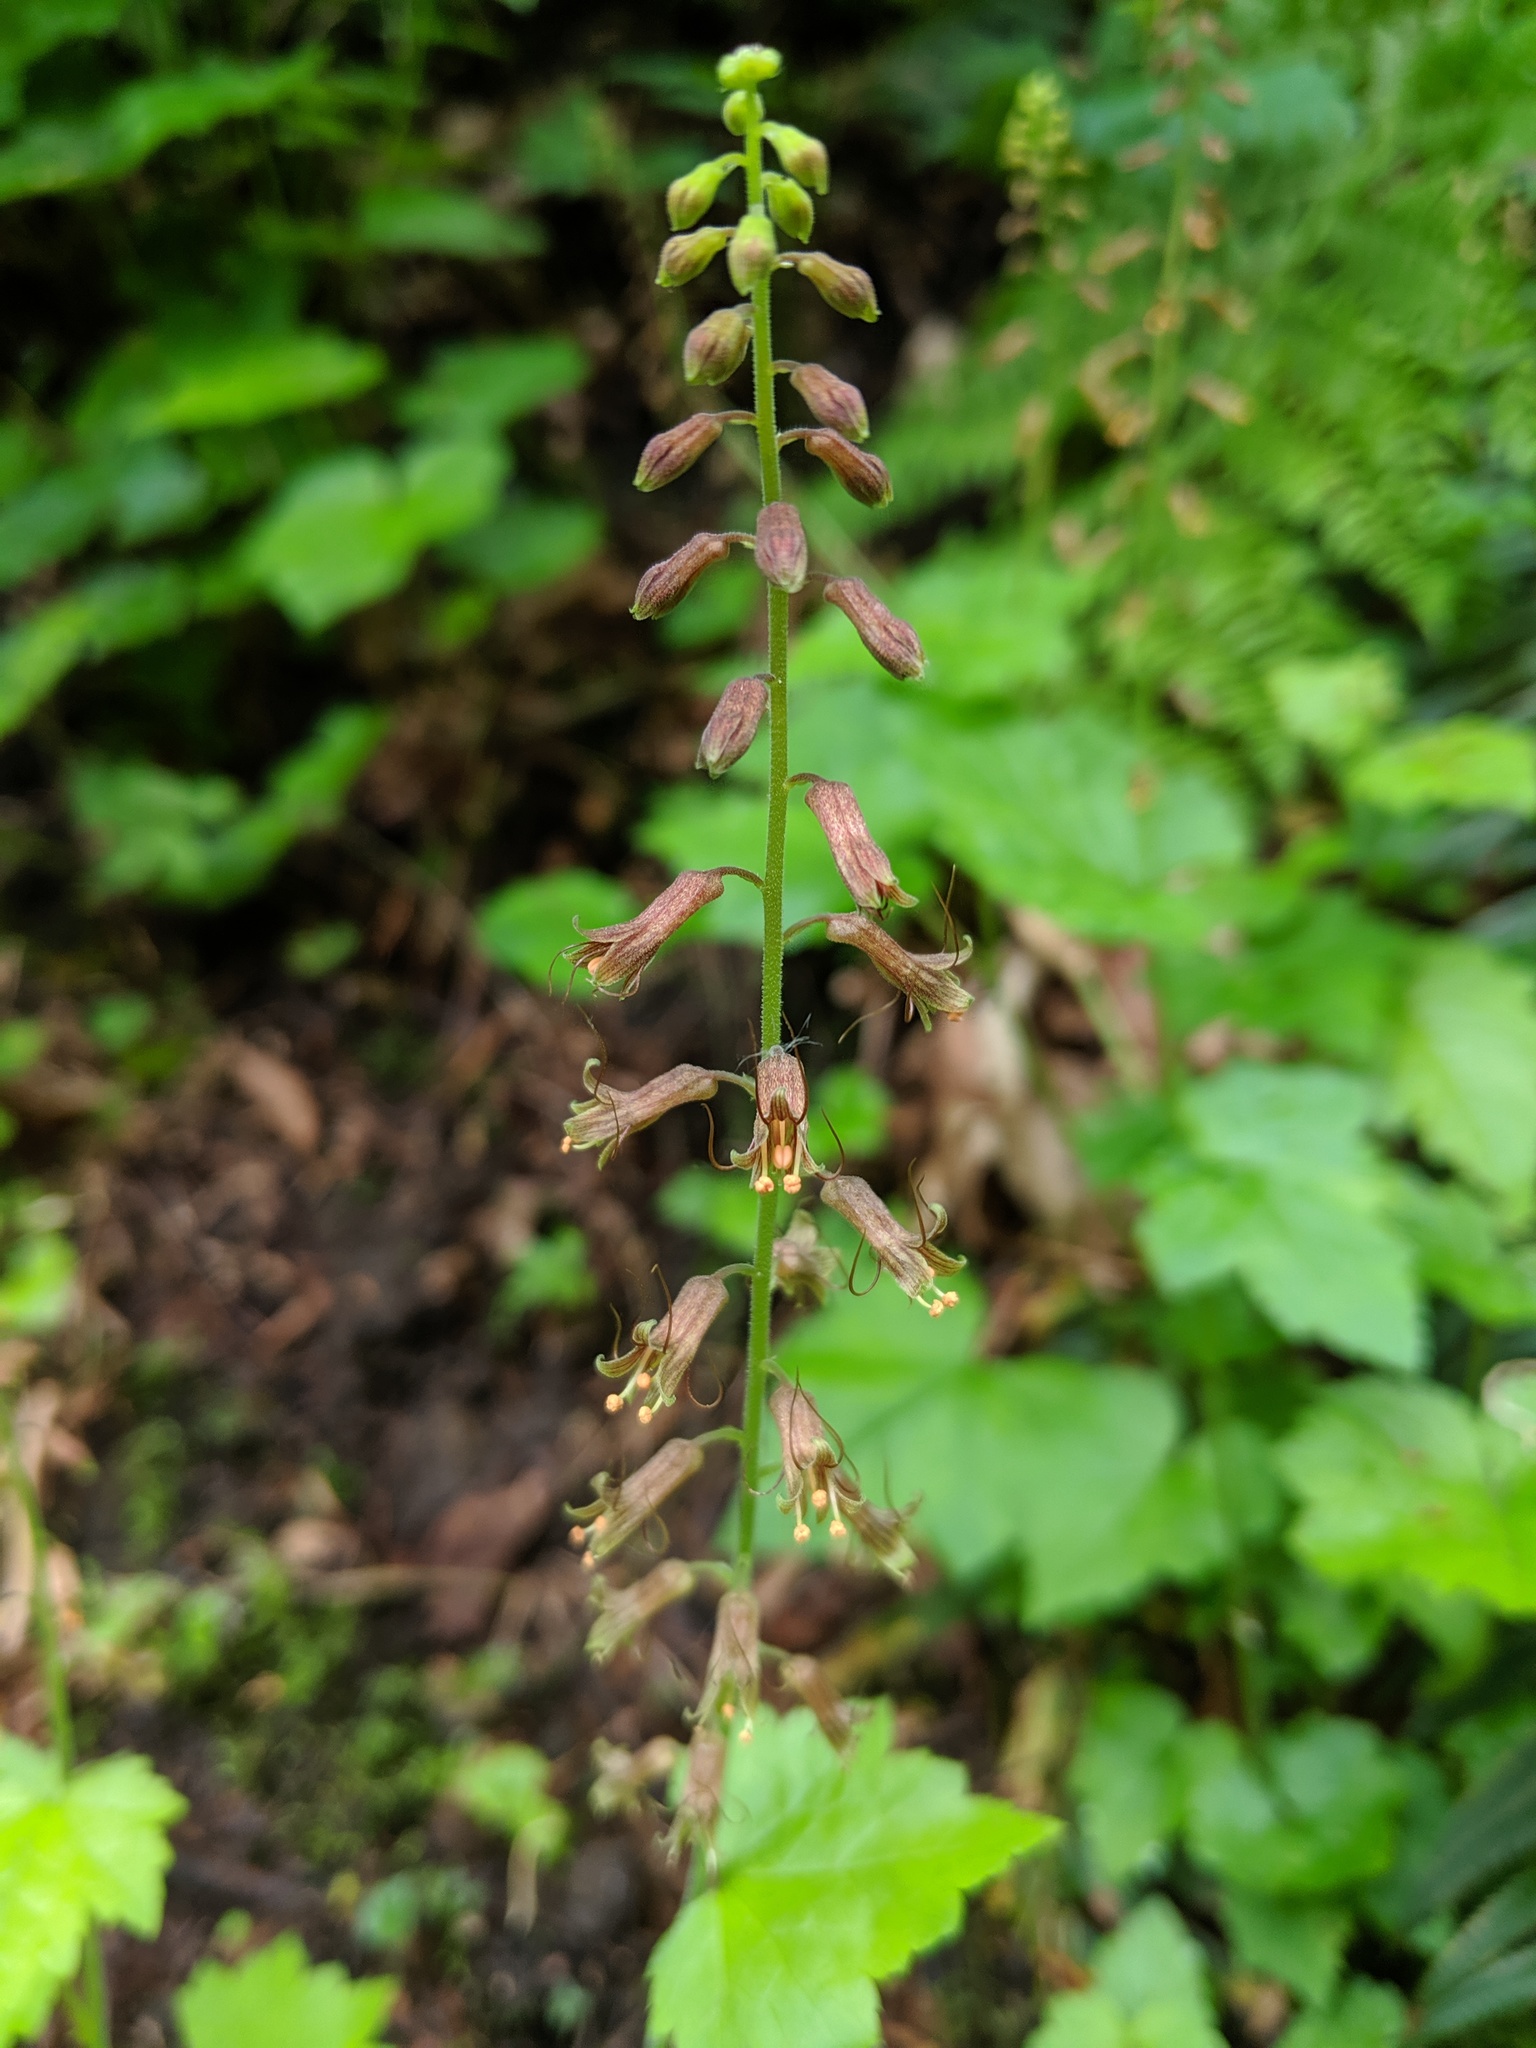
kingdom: Plantae
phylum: Tracheophyta
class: Magnoliopsida
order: Saxifragales
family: Saxifragaceae
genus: Tolmiea
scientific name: Tolmiea menziesii
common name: Pick-a-back-plant
